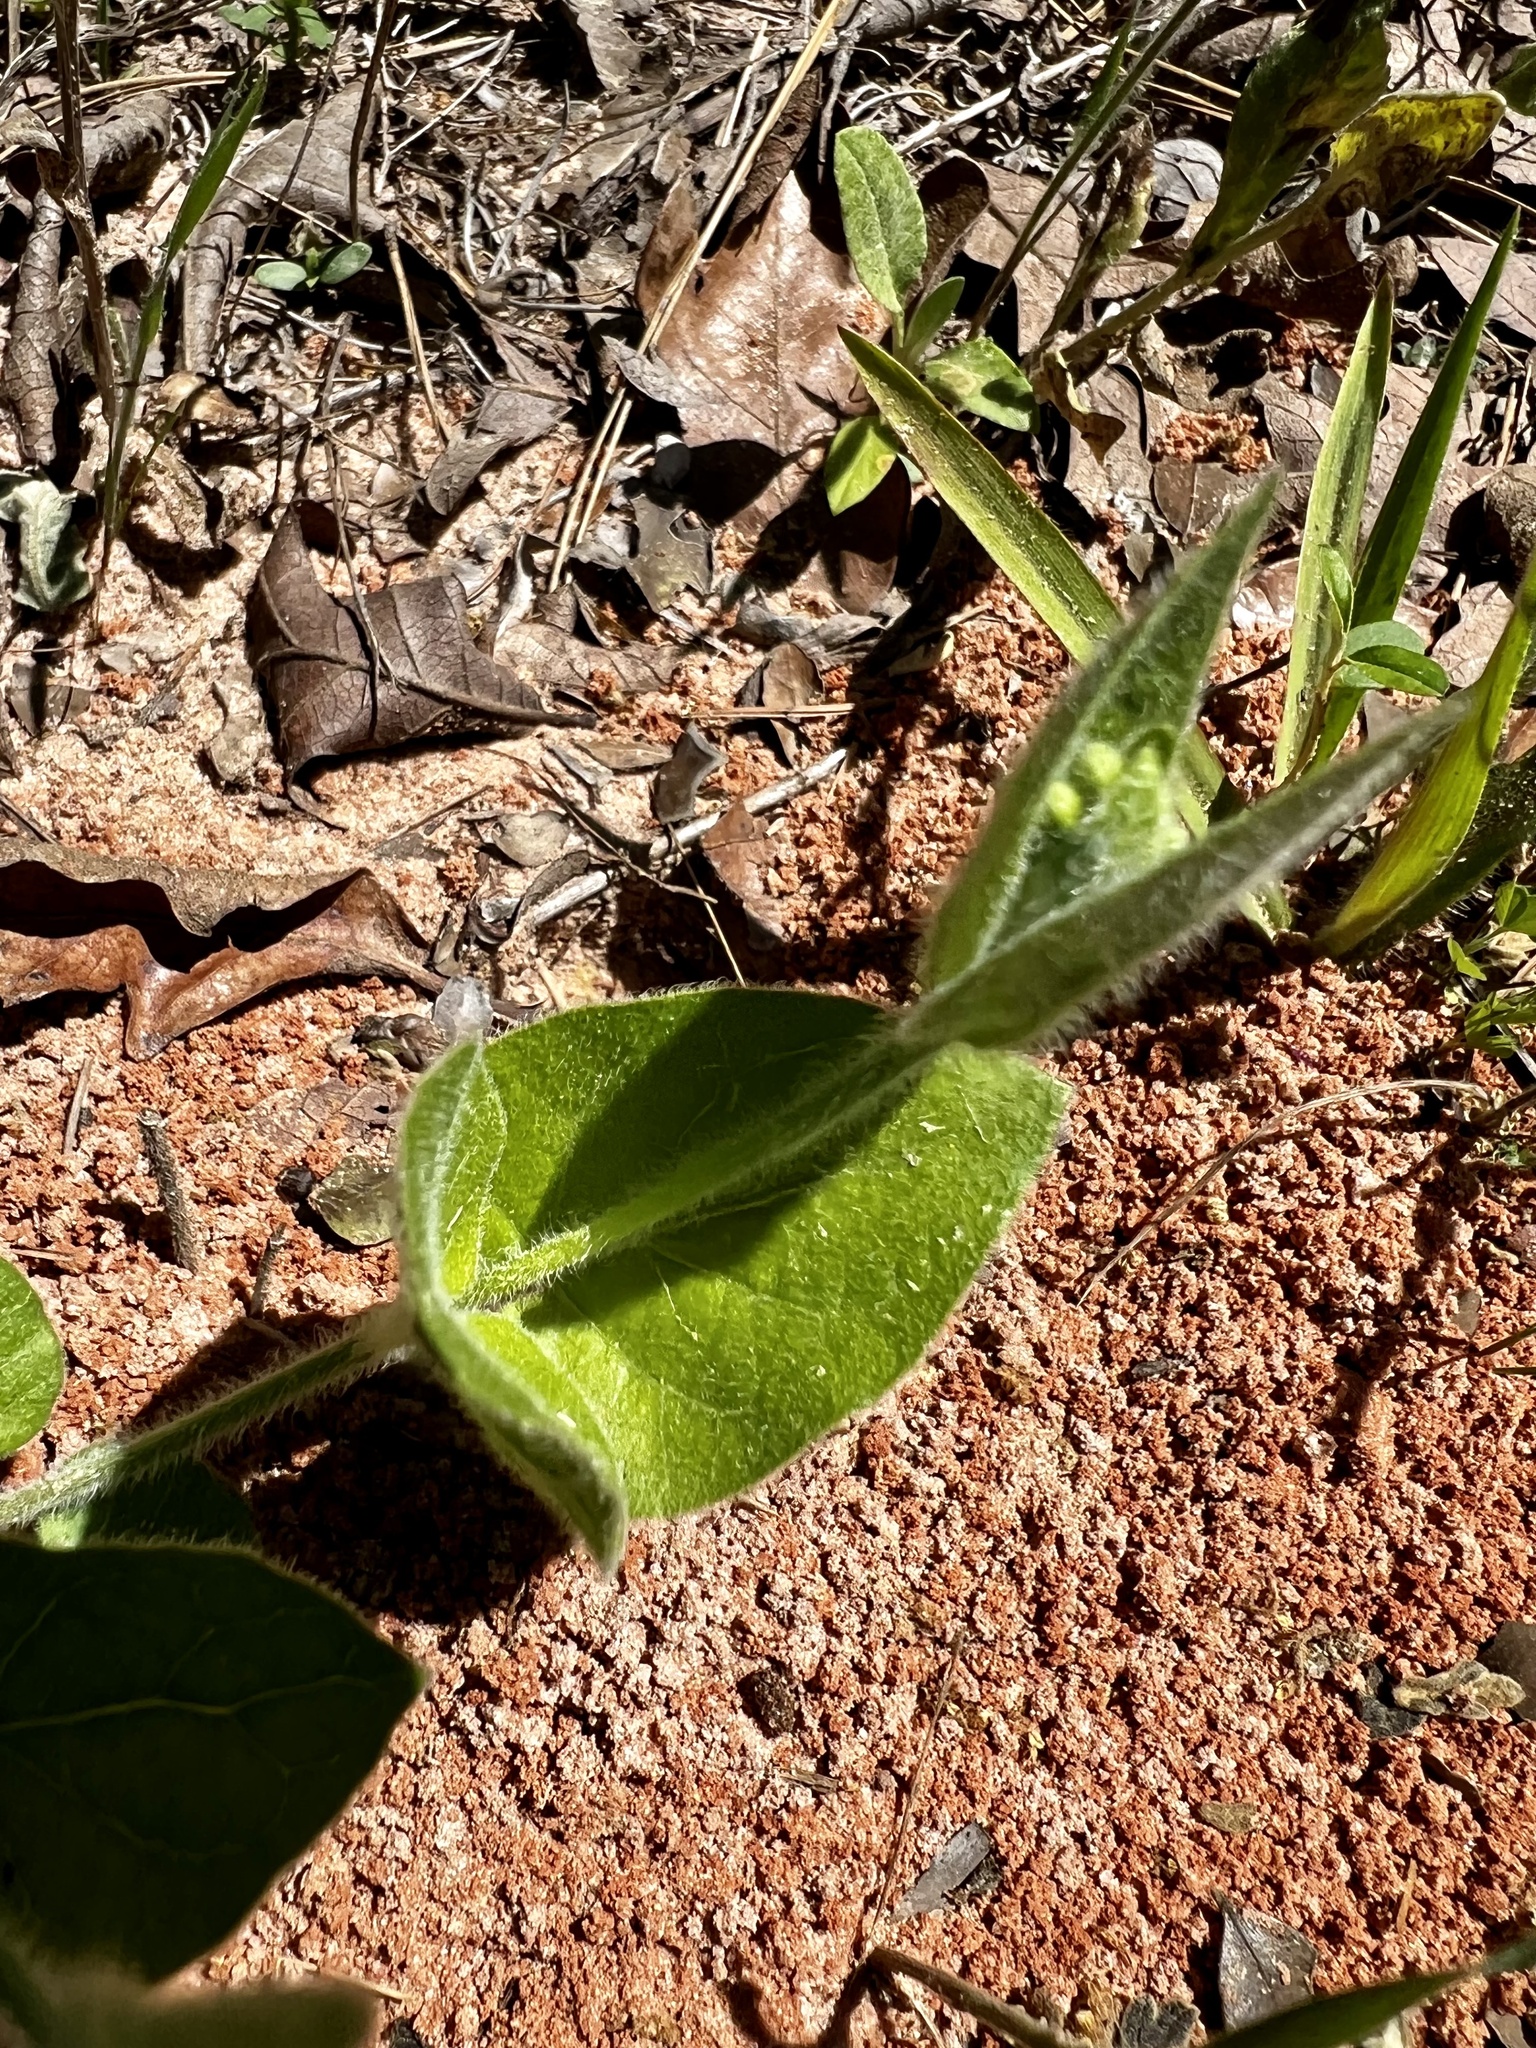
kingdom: Plantae
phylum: Tracheophyta
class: Magnoliopsida
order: Gentianales
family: Apocynaceae
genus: Matelea
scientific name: Matelea cynanchoides
